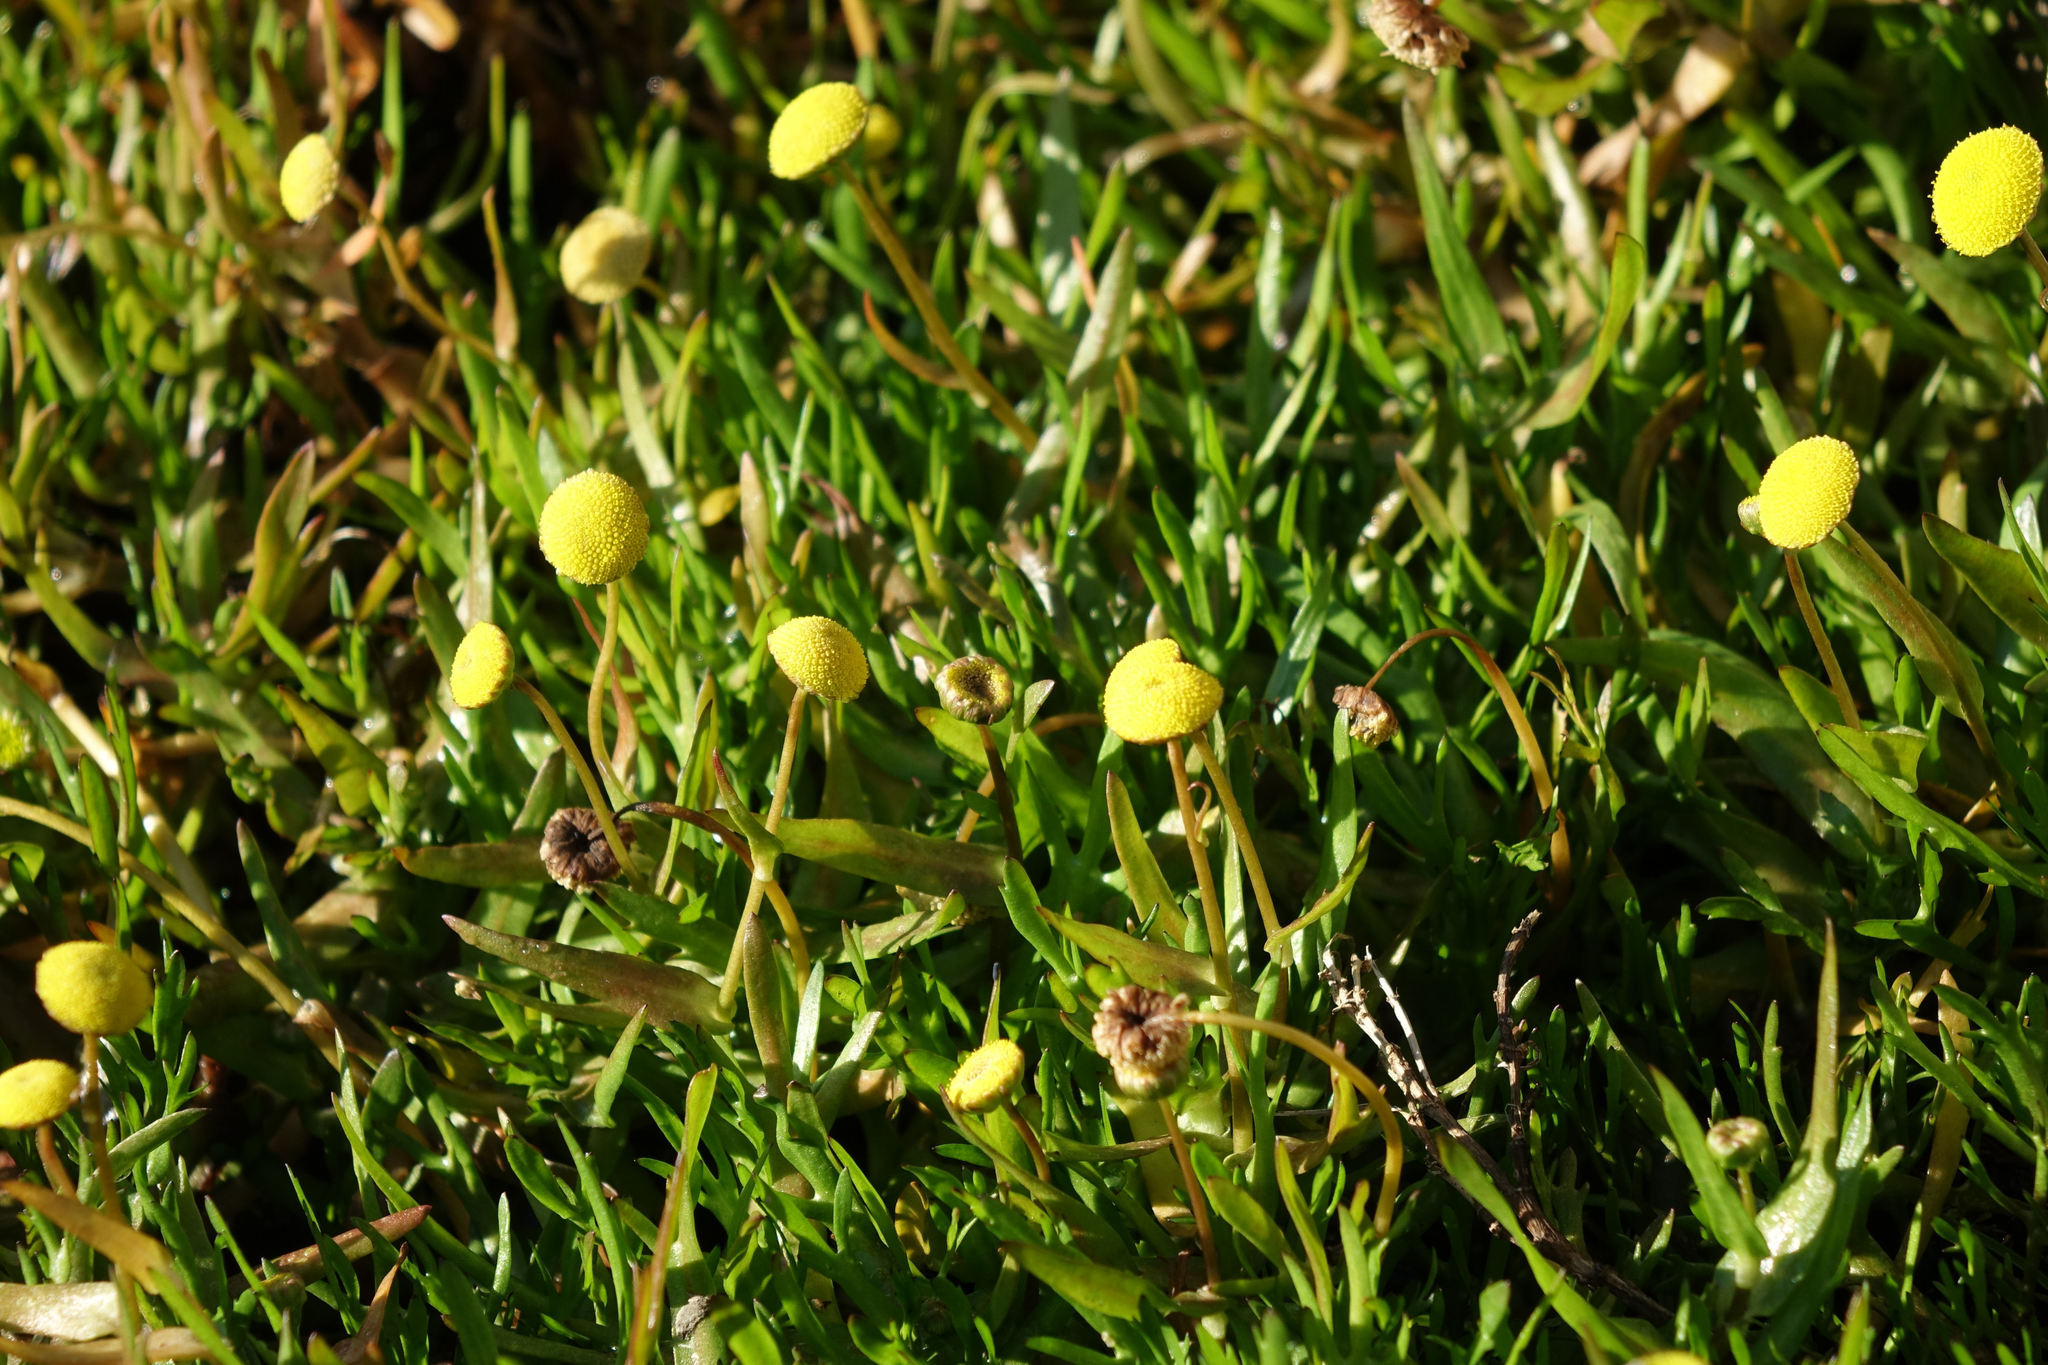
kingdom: Plantae
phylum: Tracheophyta
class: Magnoliopsida
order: Asterales
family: Asteraceae
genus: Cotula
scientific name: Cotula coronopifolia
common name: Buttonweed
